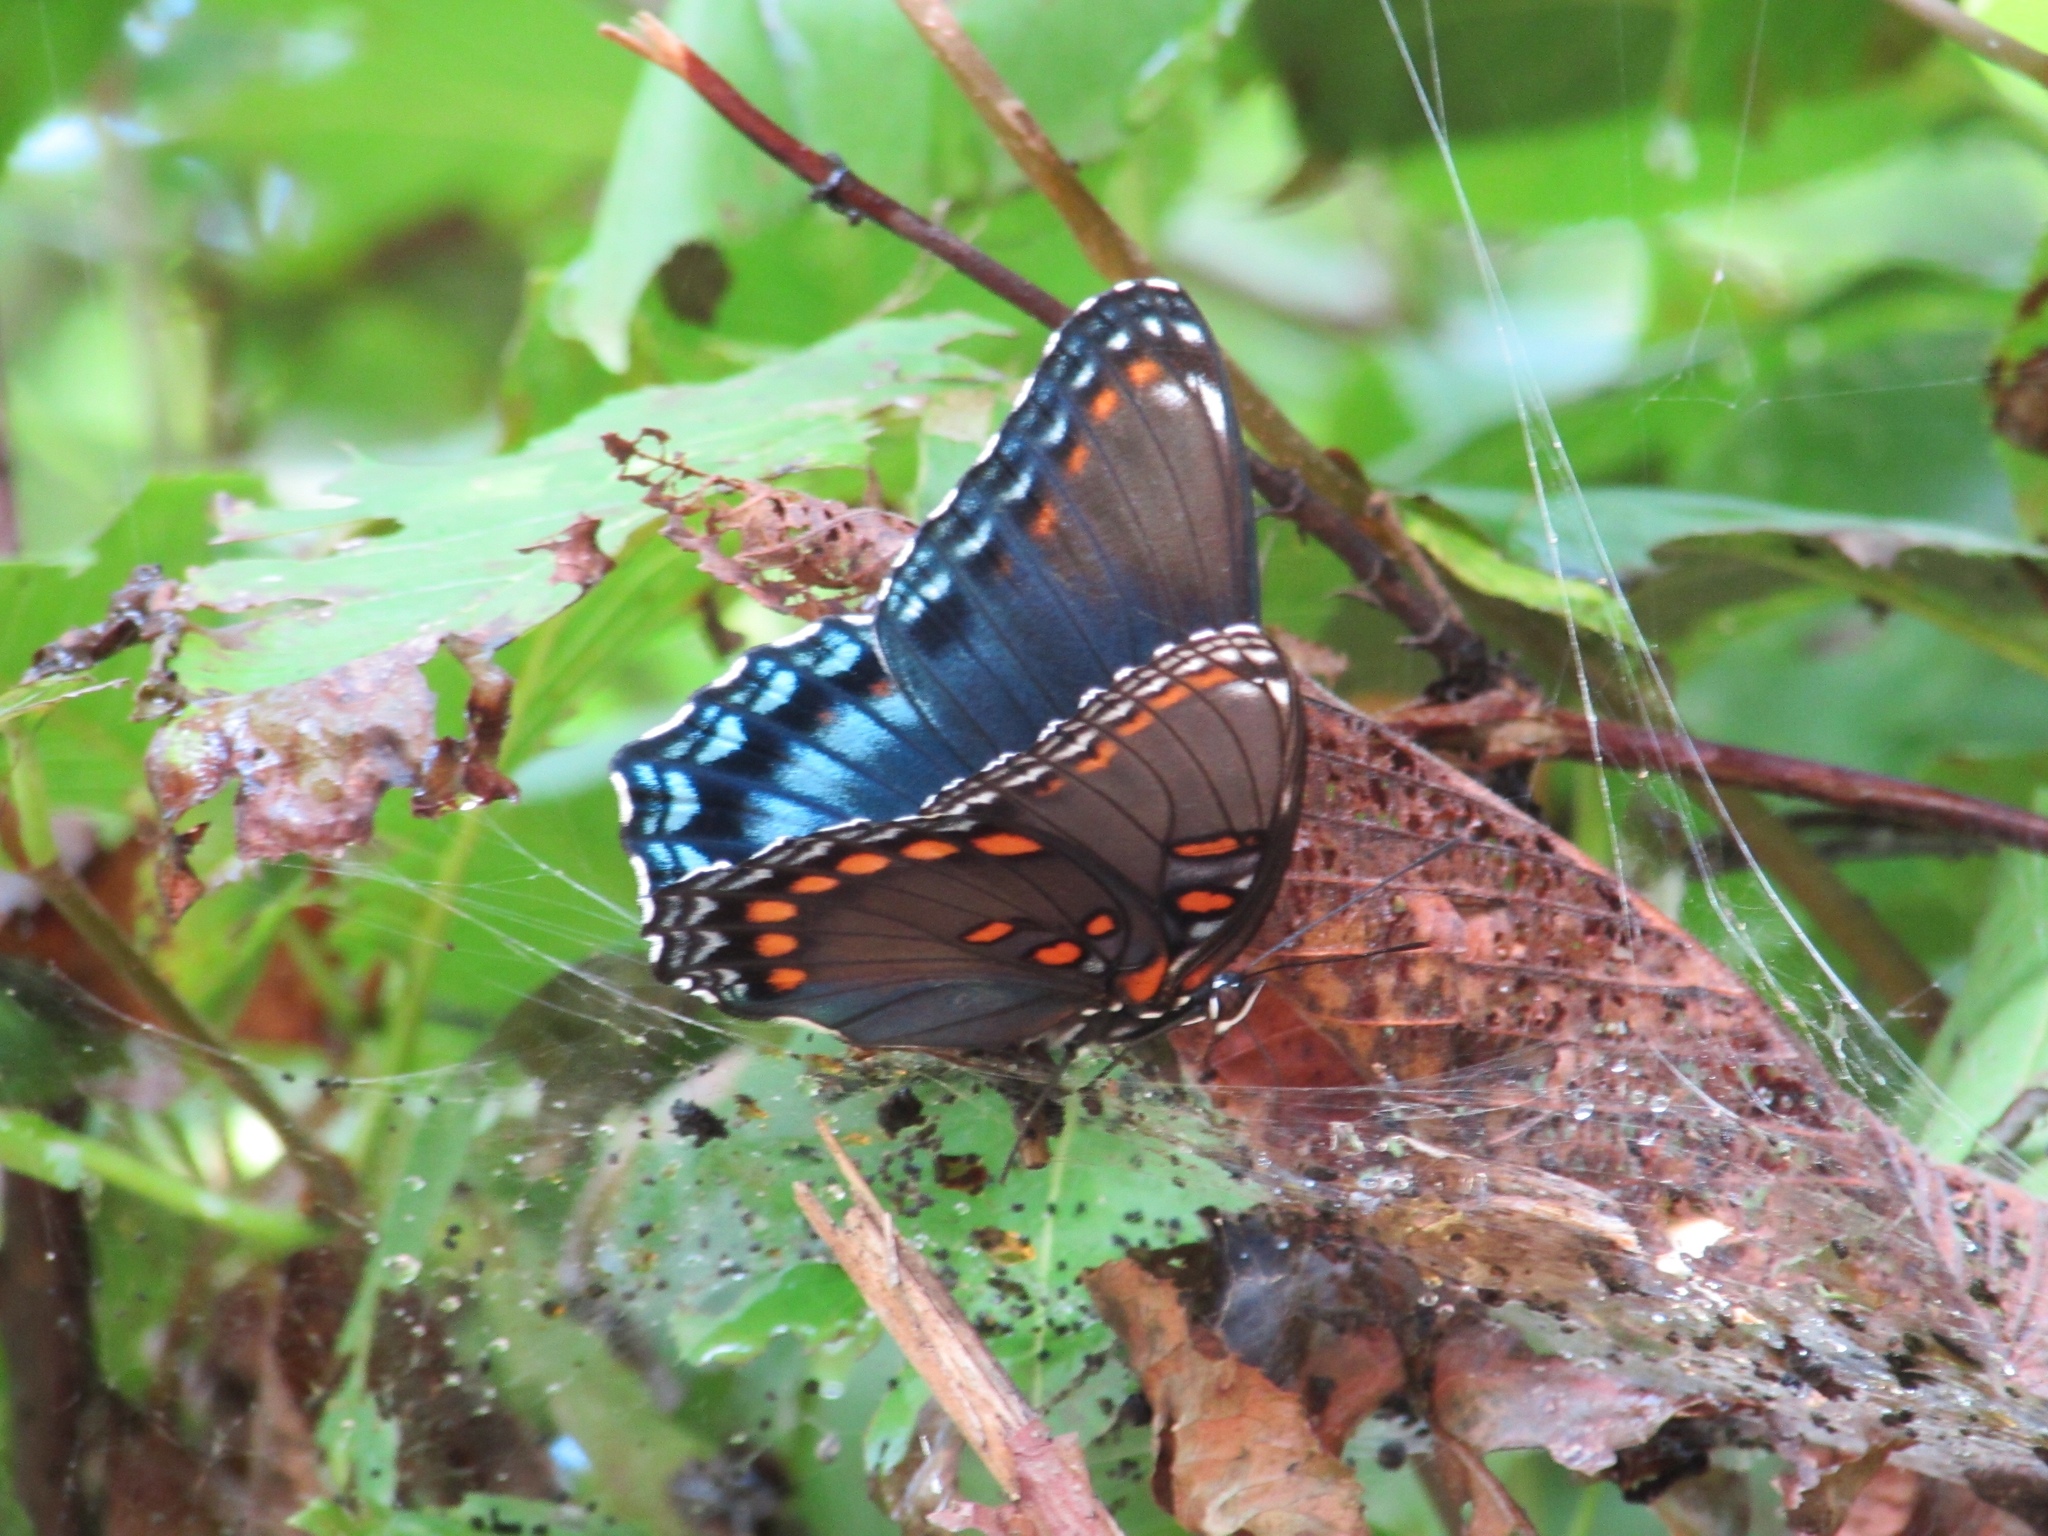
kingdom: Animalia
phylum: Arthropoda
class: Insecta
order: Lepidoptera
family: Nymphalidae
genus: Limenitis
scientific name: Limenitis astyanax
